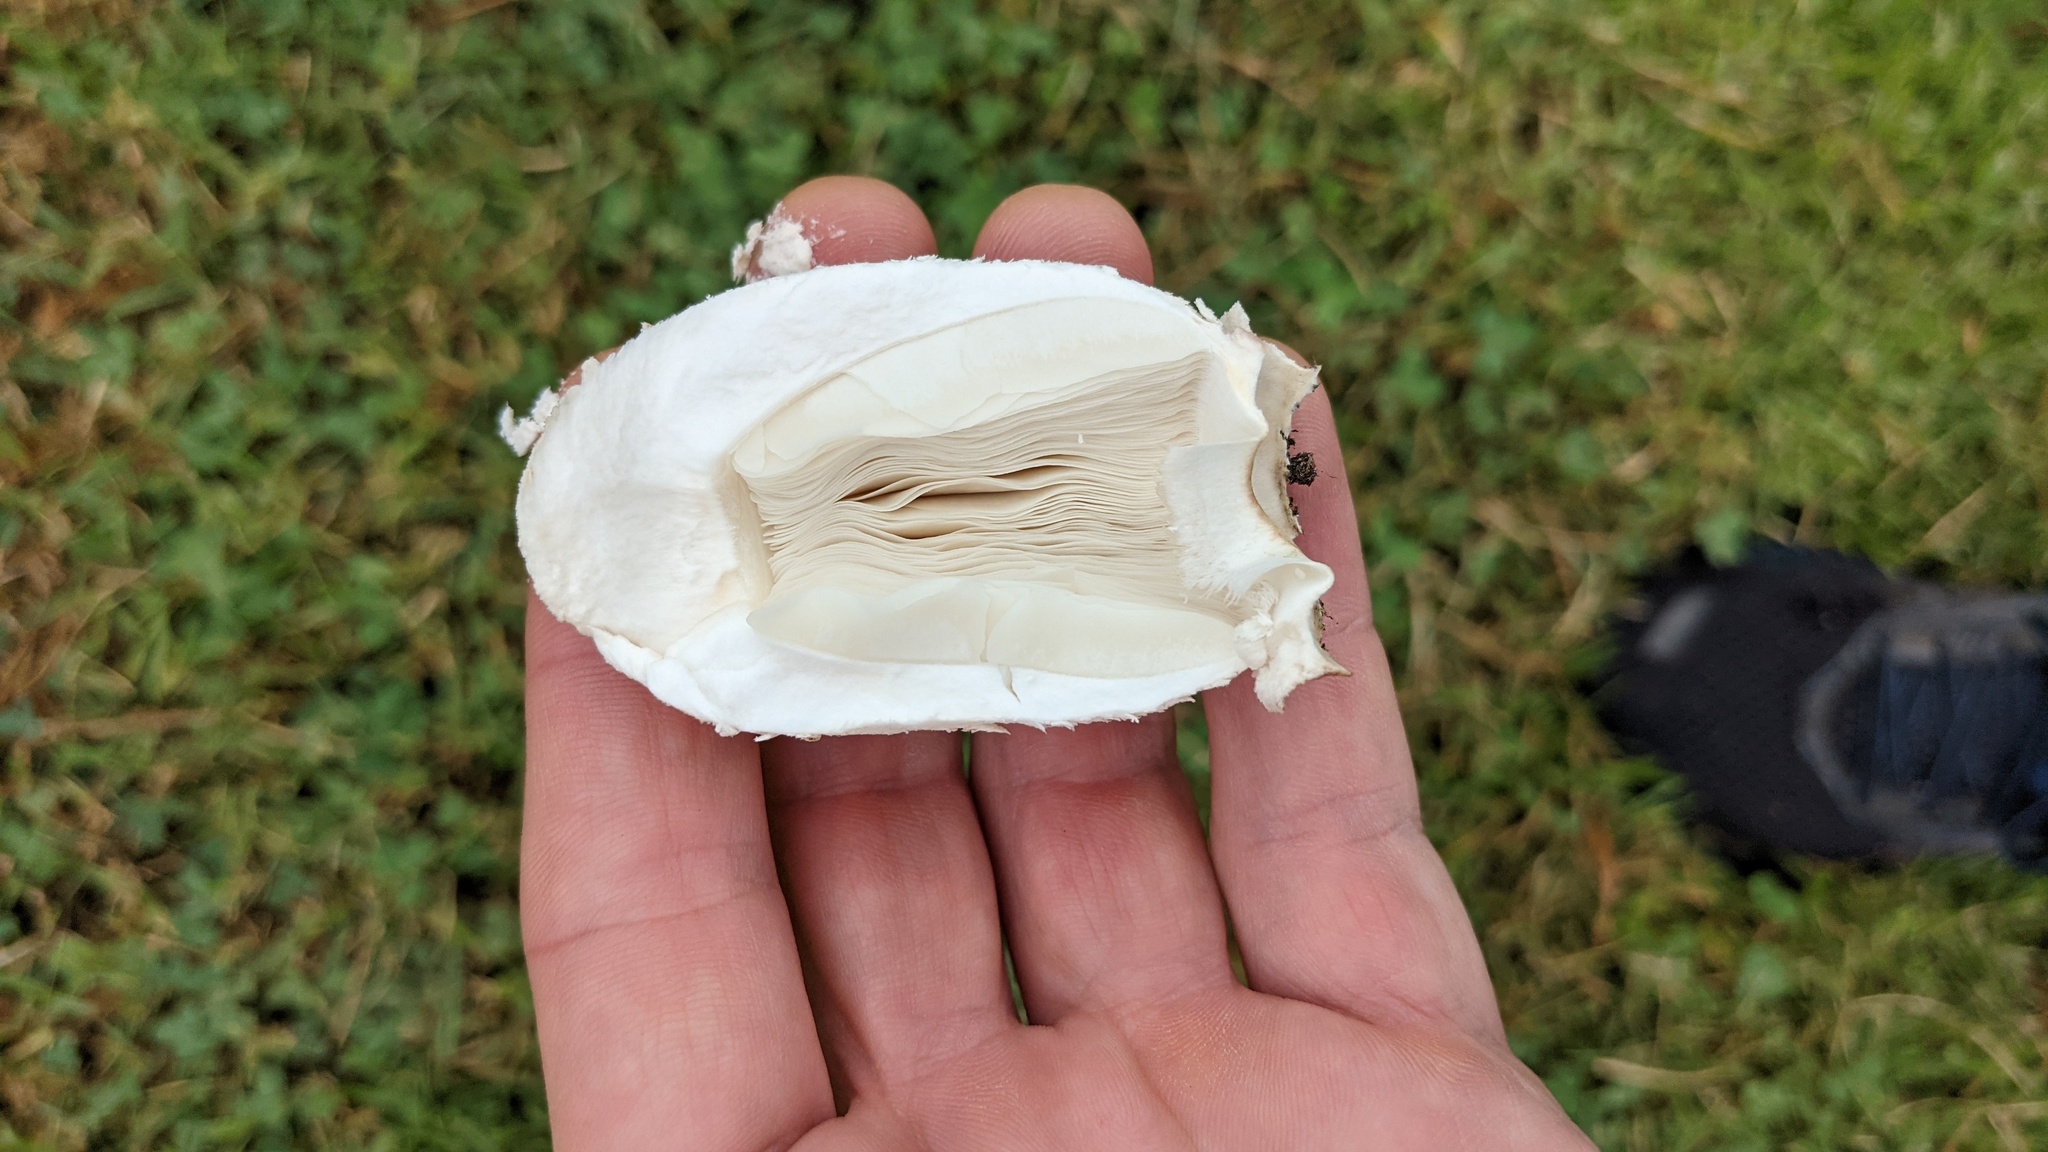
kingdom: Fungi
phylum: Basidiomycota
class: Agaricomycetes
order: Agaricales
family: Agaricaceae
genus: Chlorophyllum
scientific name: Chlorophyllum molybdites
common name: False parasol
